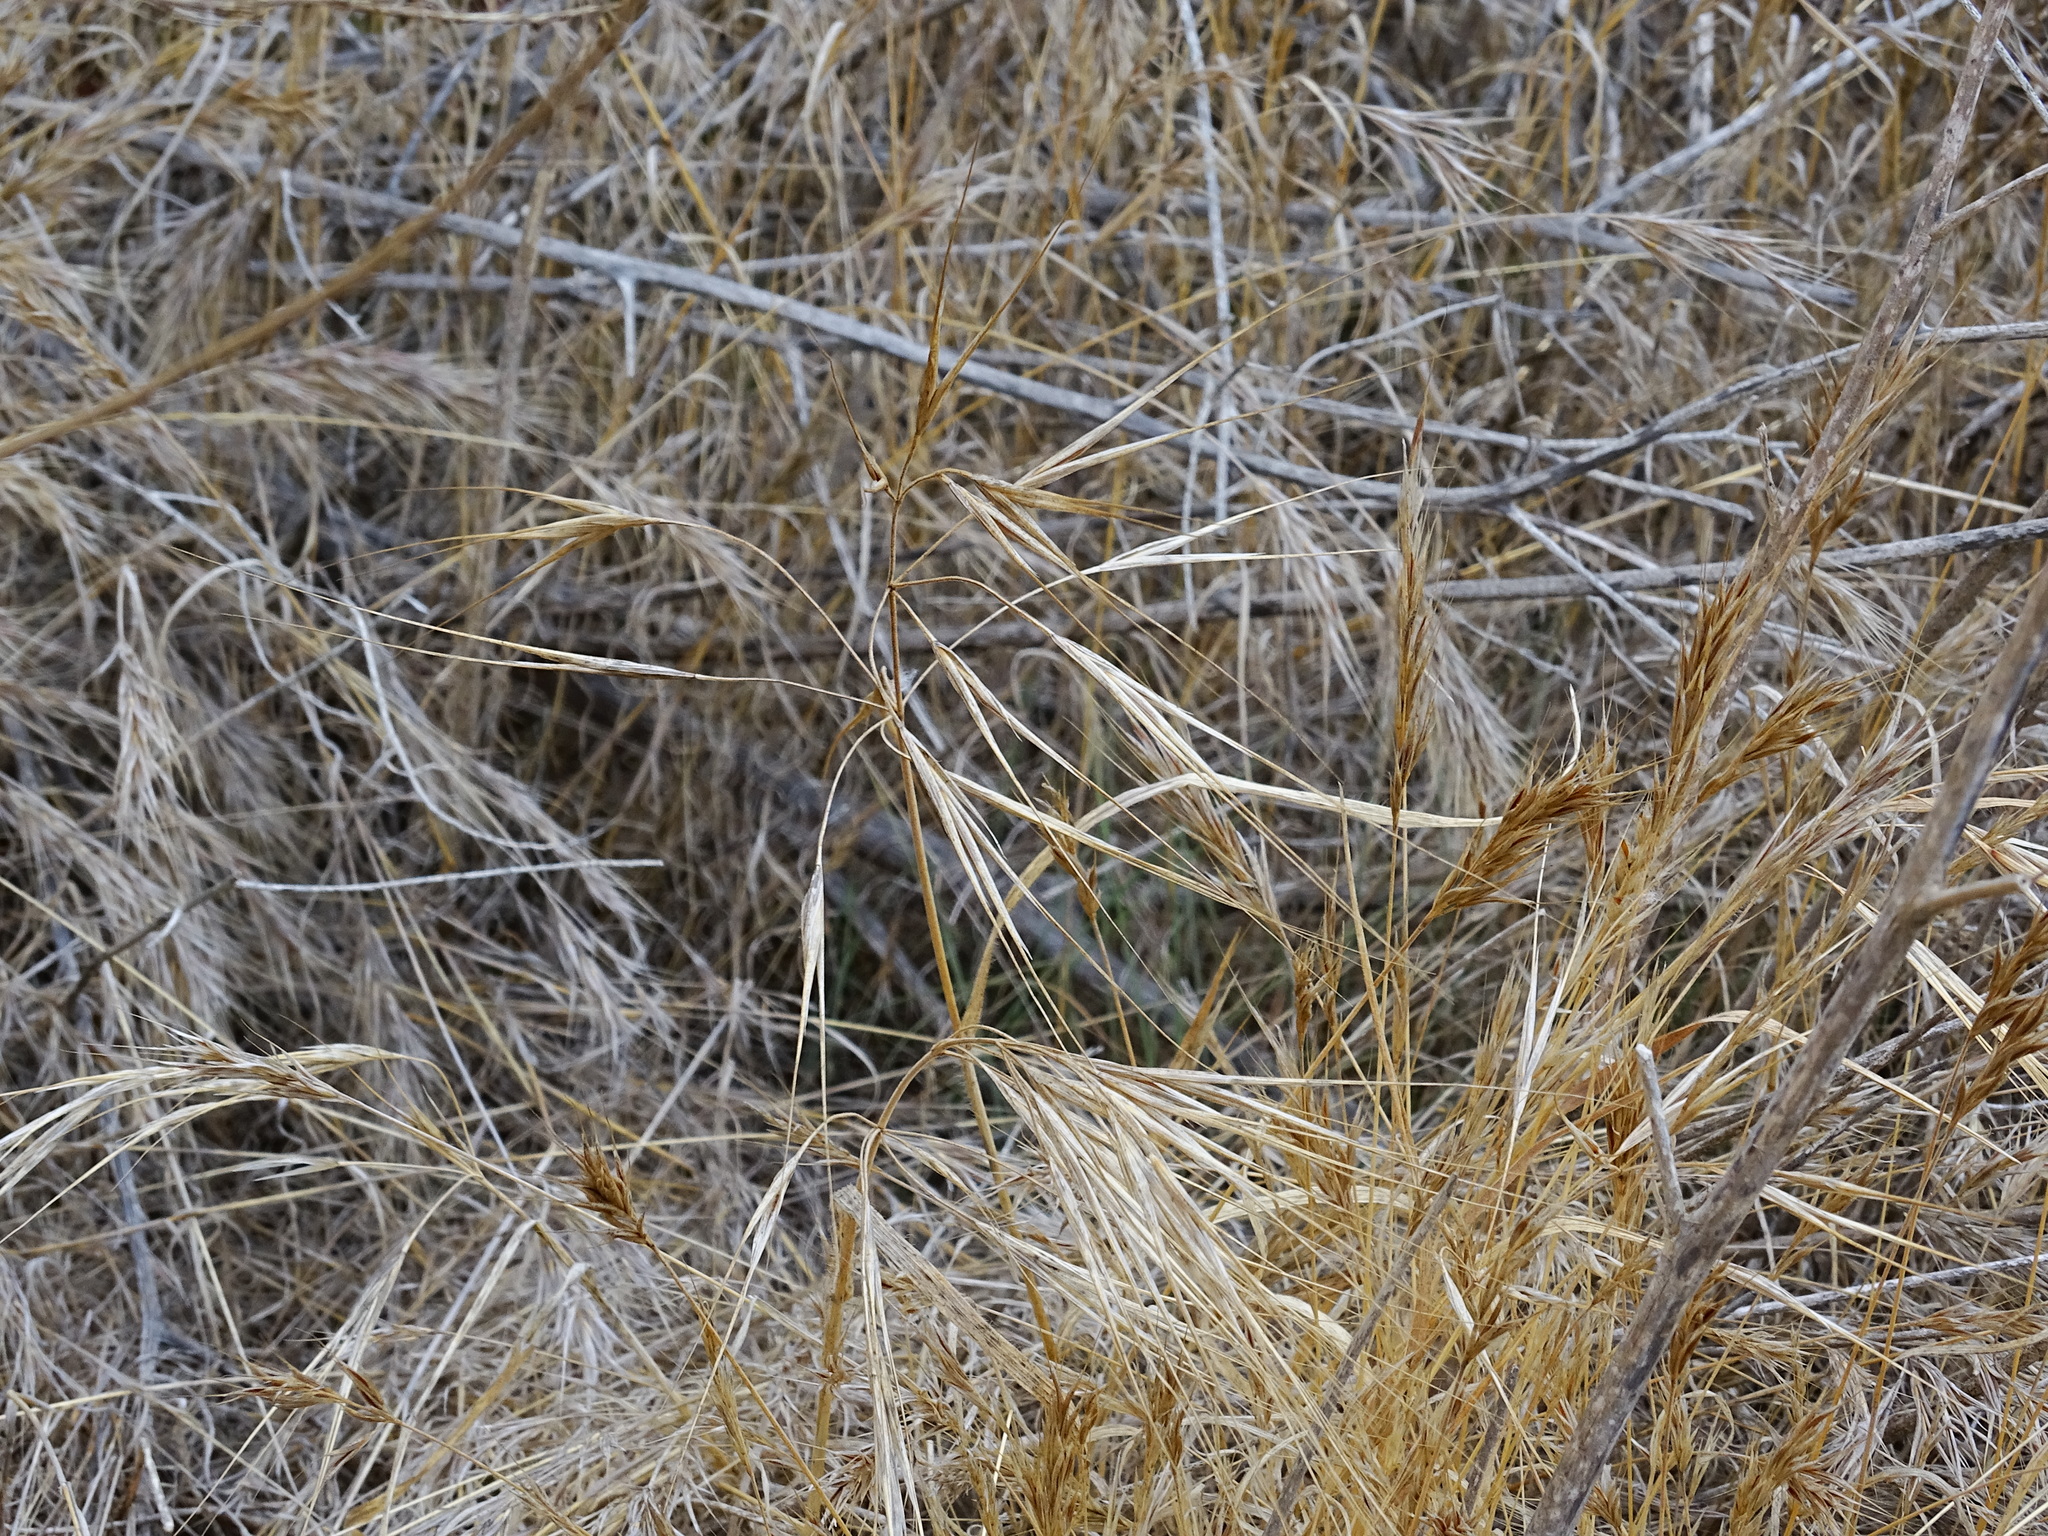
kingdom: Plantae
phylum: Tracheophyta
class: Liliopsida
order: Poales
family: Poaceae
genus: Bromus
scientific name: Bromus diandrus
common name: Ripgut brome
